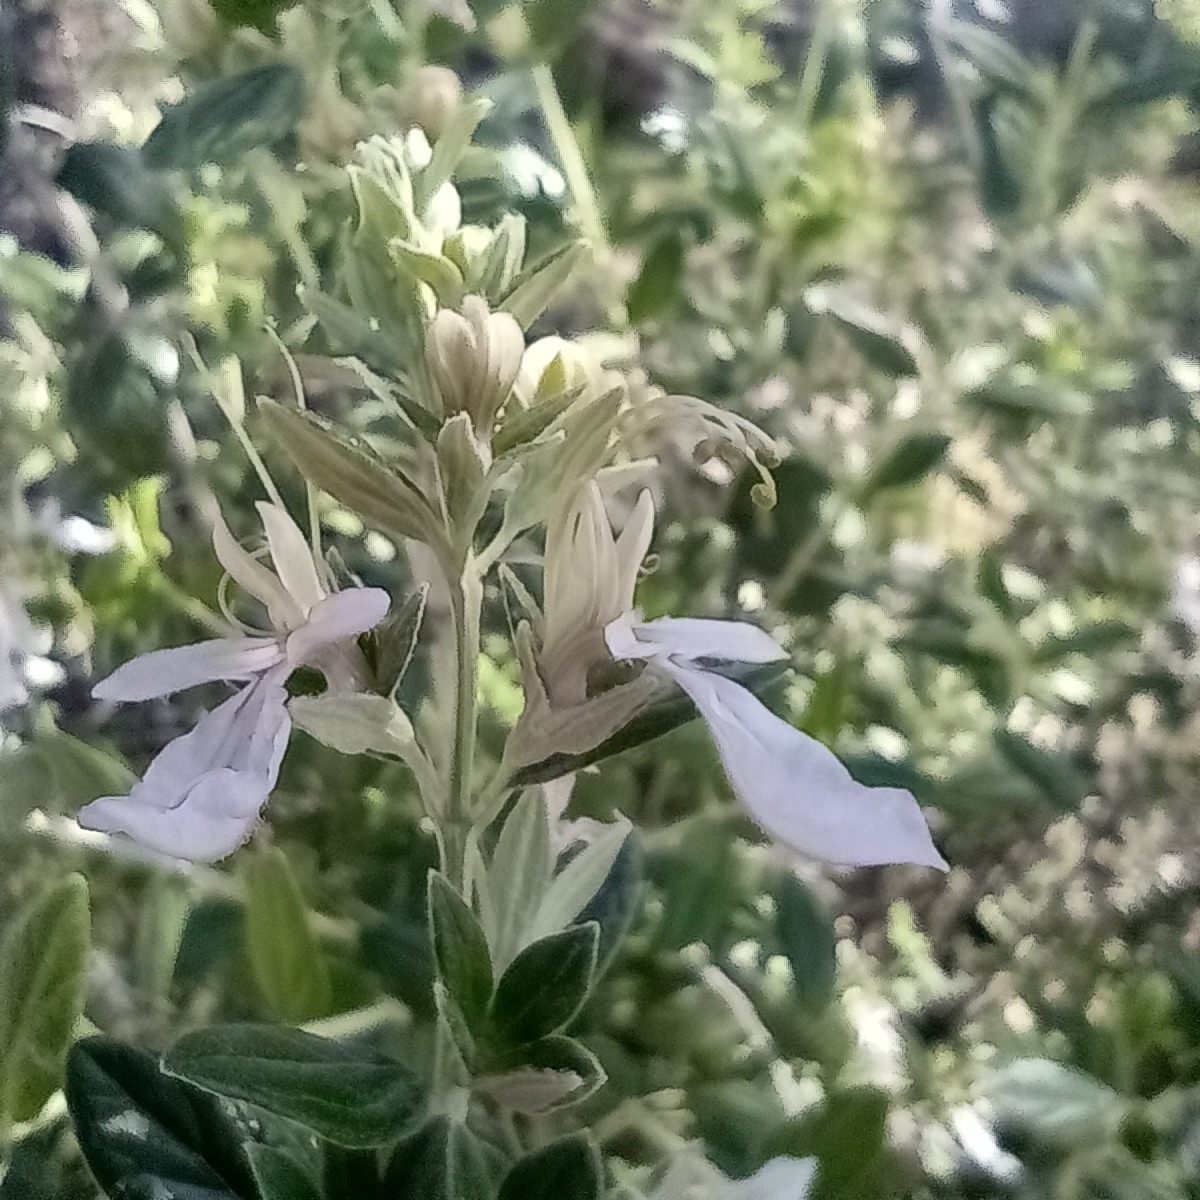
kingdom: Plantae
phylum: Tracheophyta
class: Magnoliopsida
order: Lamiales
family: Lamiaceae
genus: Teucrium
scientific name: Teucrium pseudochamaepitys
